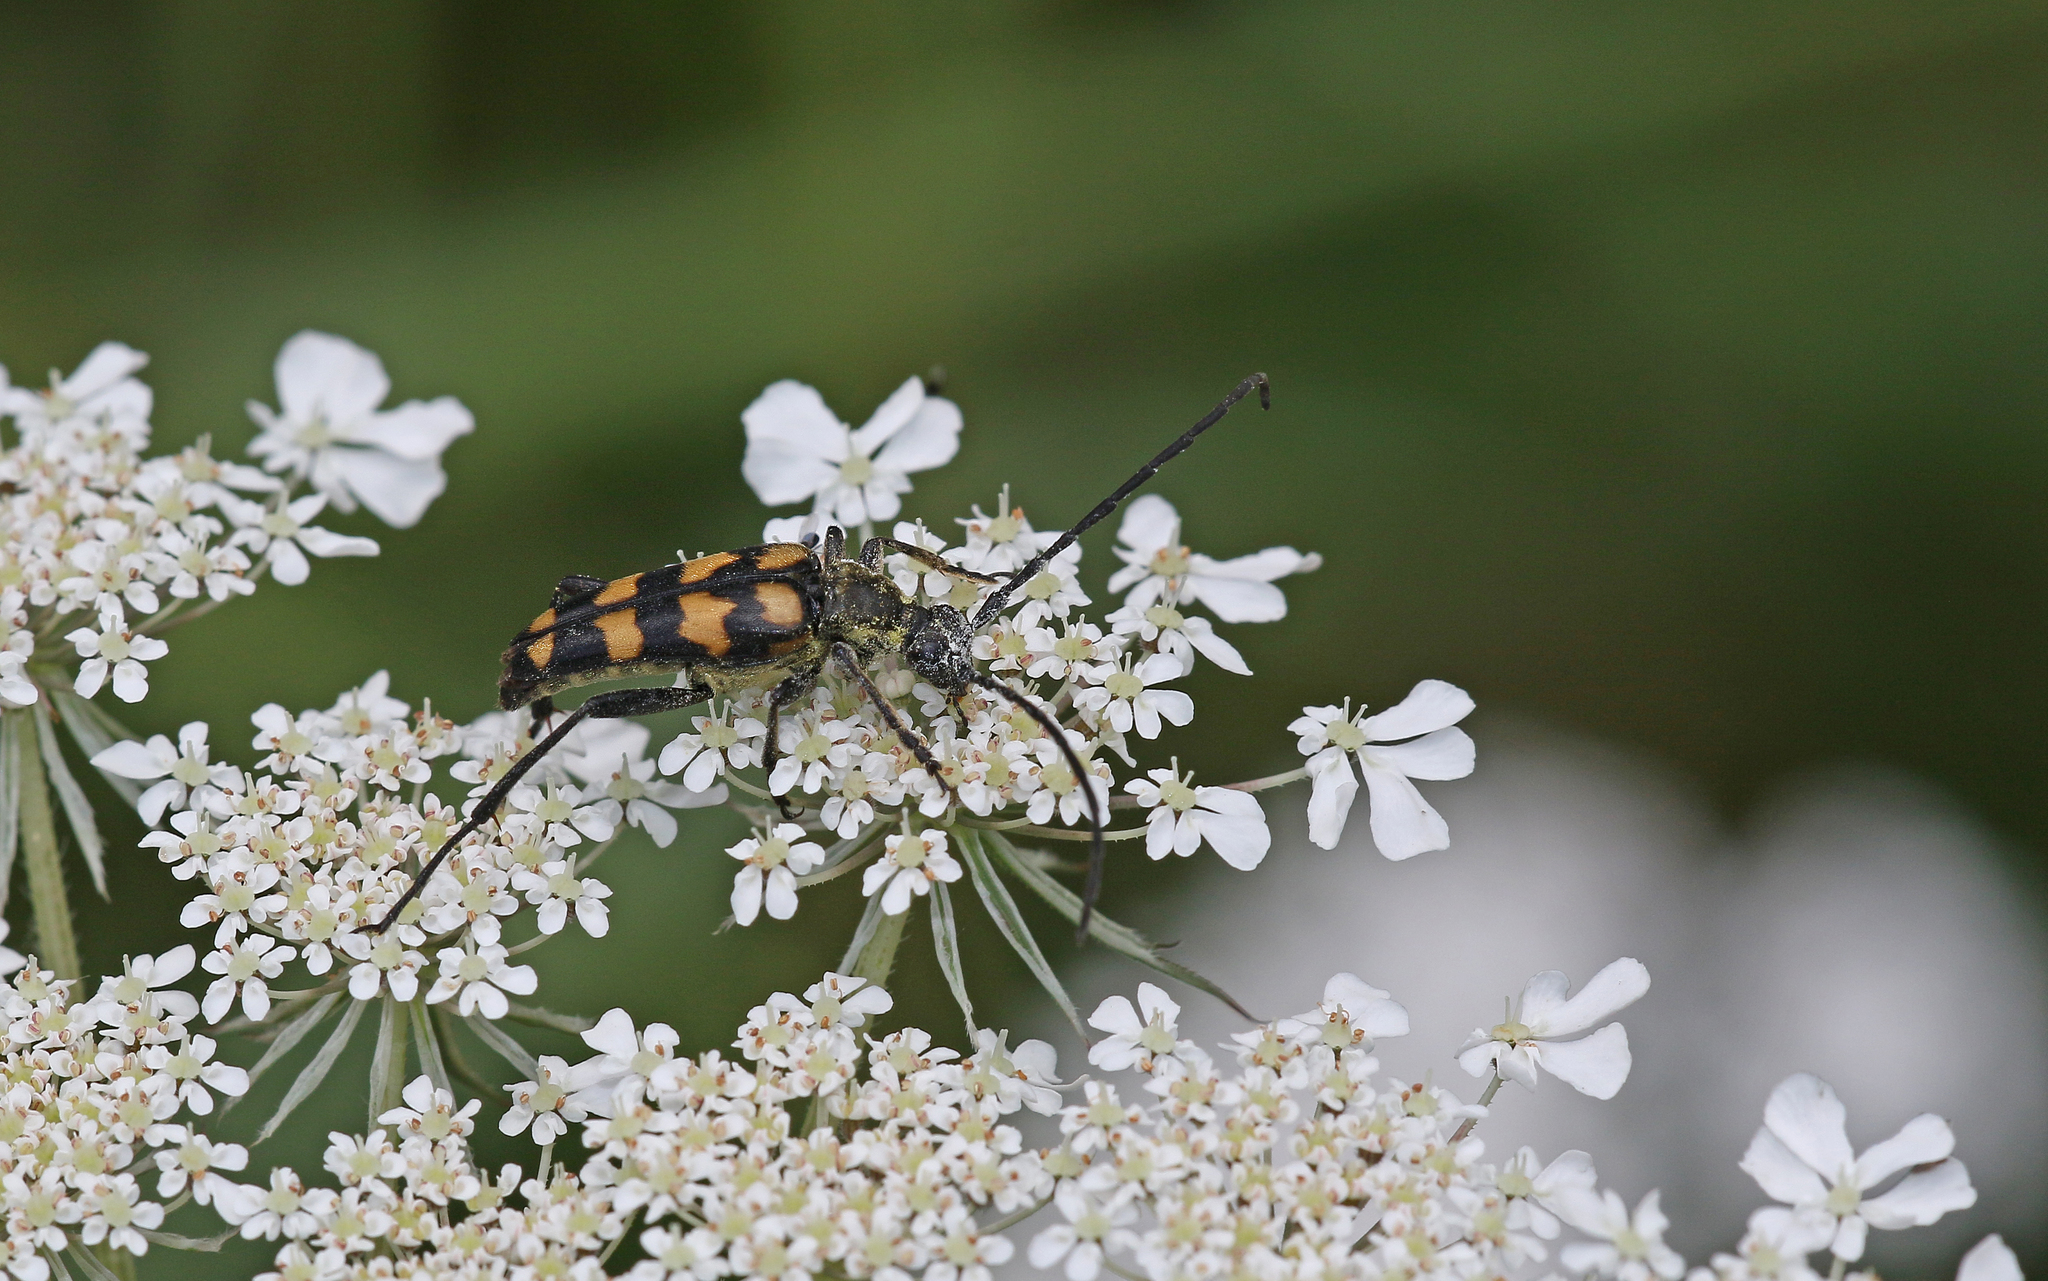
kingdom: Animalia
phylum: Arthropoda
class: Insecta
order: Coleoptera
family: Cerambycidae
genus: Leptura
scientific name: Leptura quadrifasciata
